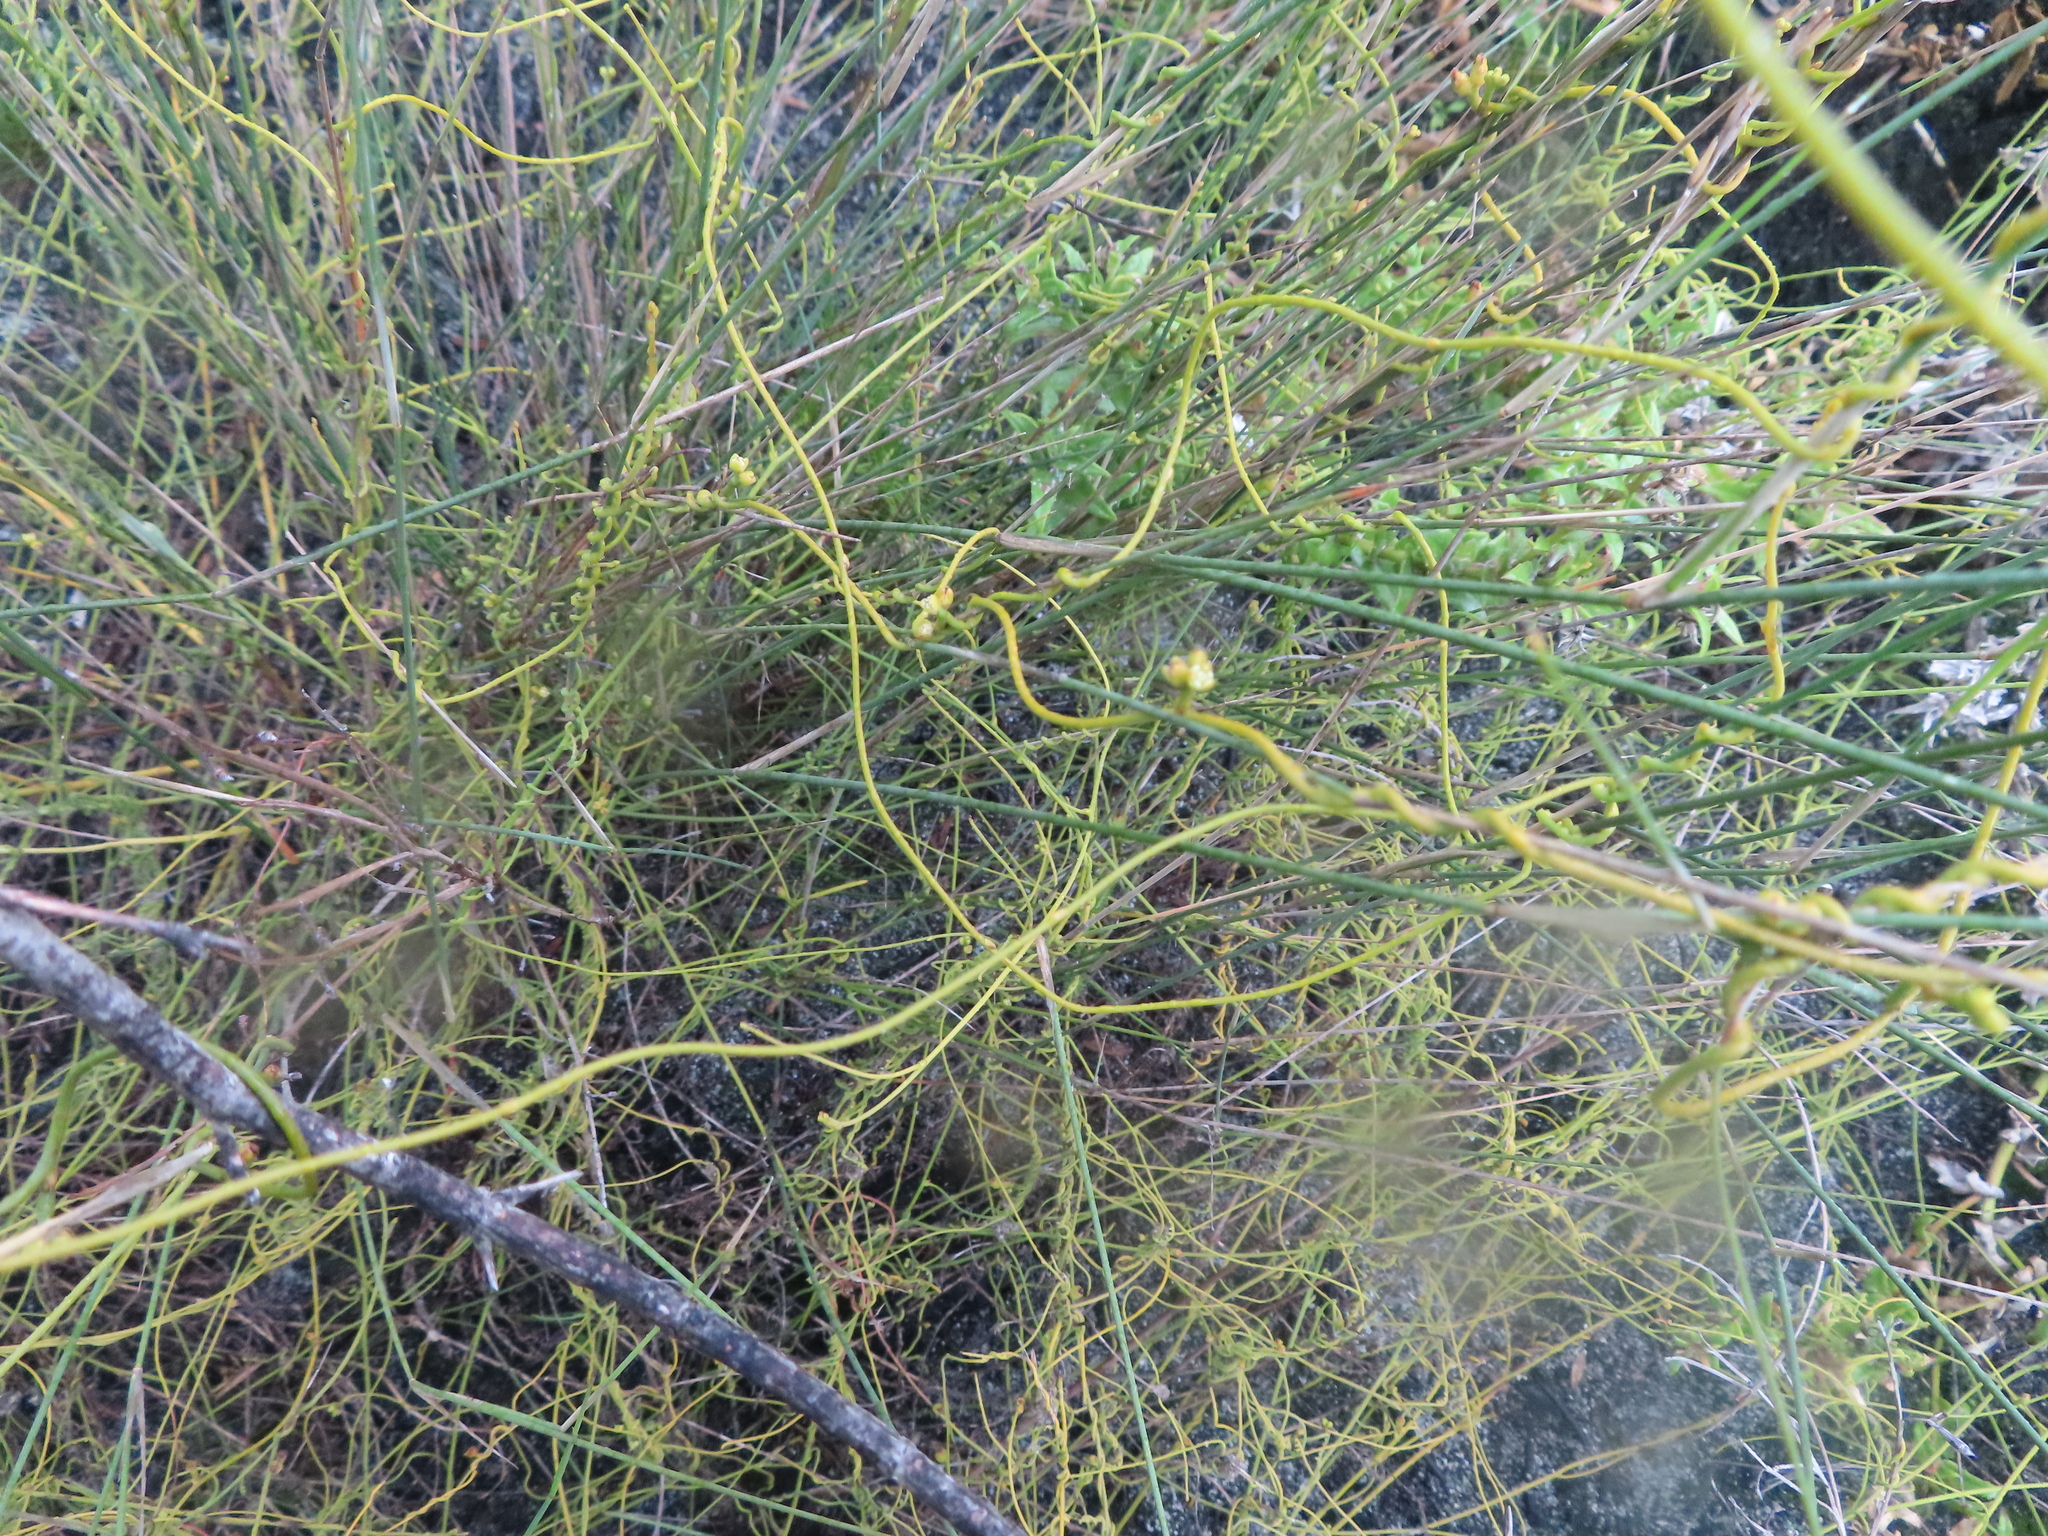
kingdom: Plantae
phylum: Tracheophyta
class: Magnoliopsida
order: Laurales
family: Lauraceae
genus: Cassytha
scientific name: Cassytha ciliolata
